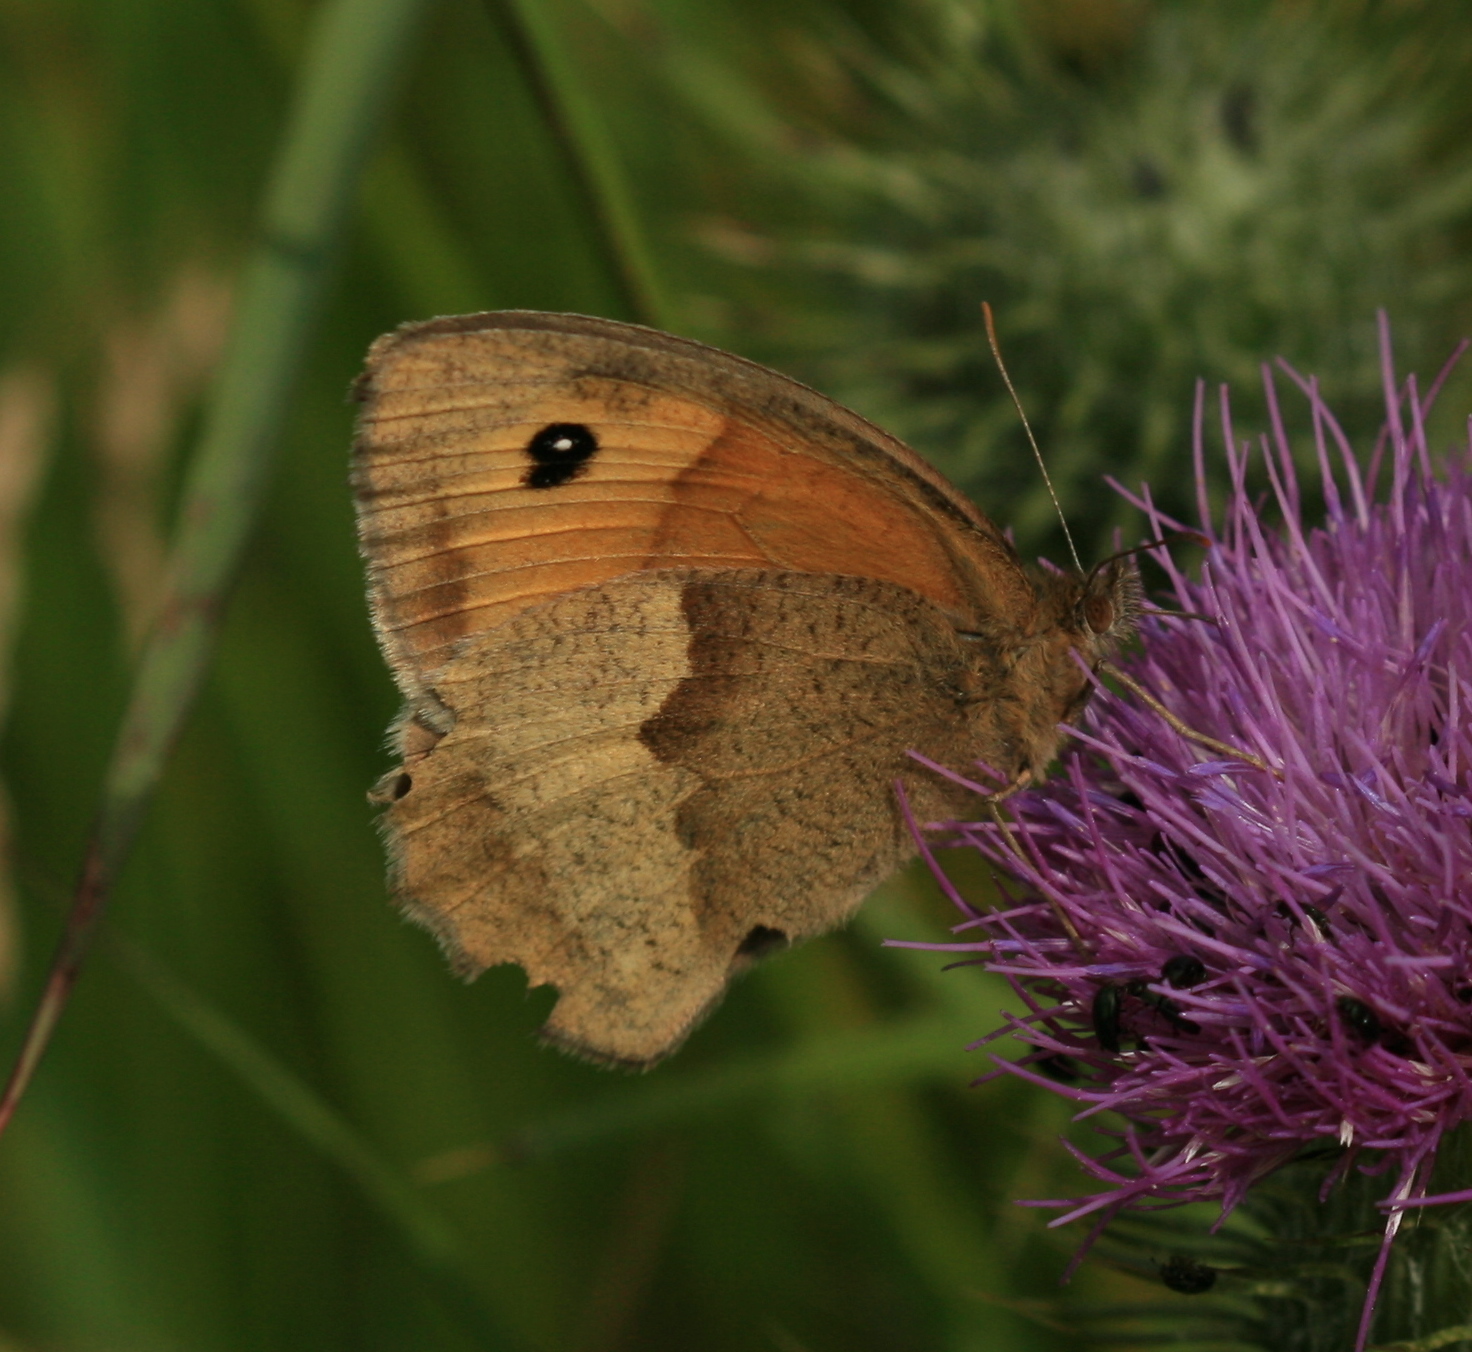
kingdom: Animalia
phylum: Arthropoda
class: Insecta
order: Lepidoptera
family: Nymphalidae
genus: Maniola
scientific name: Maniola jurtina
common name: Meadow brown
